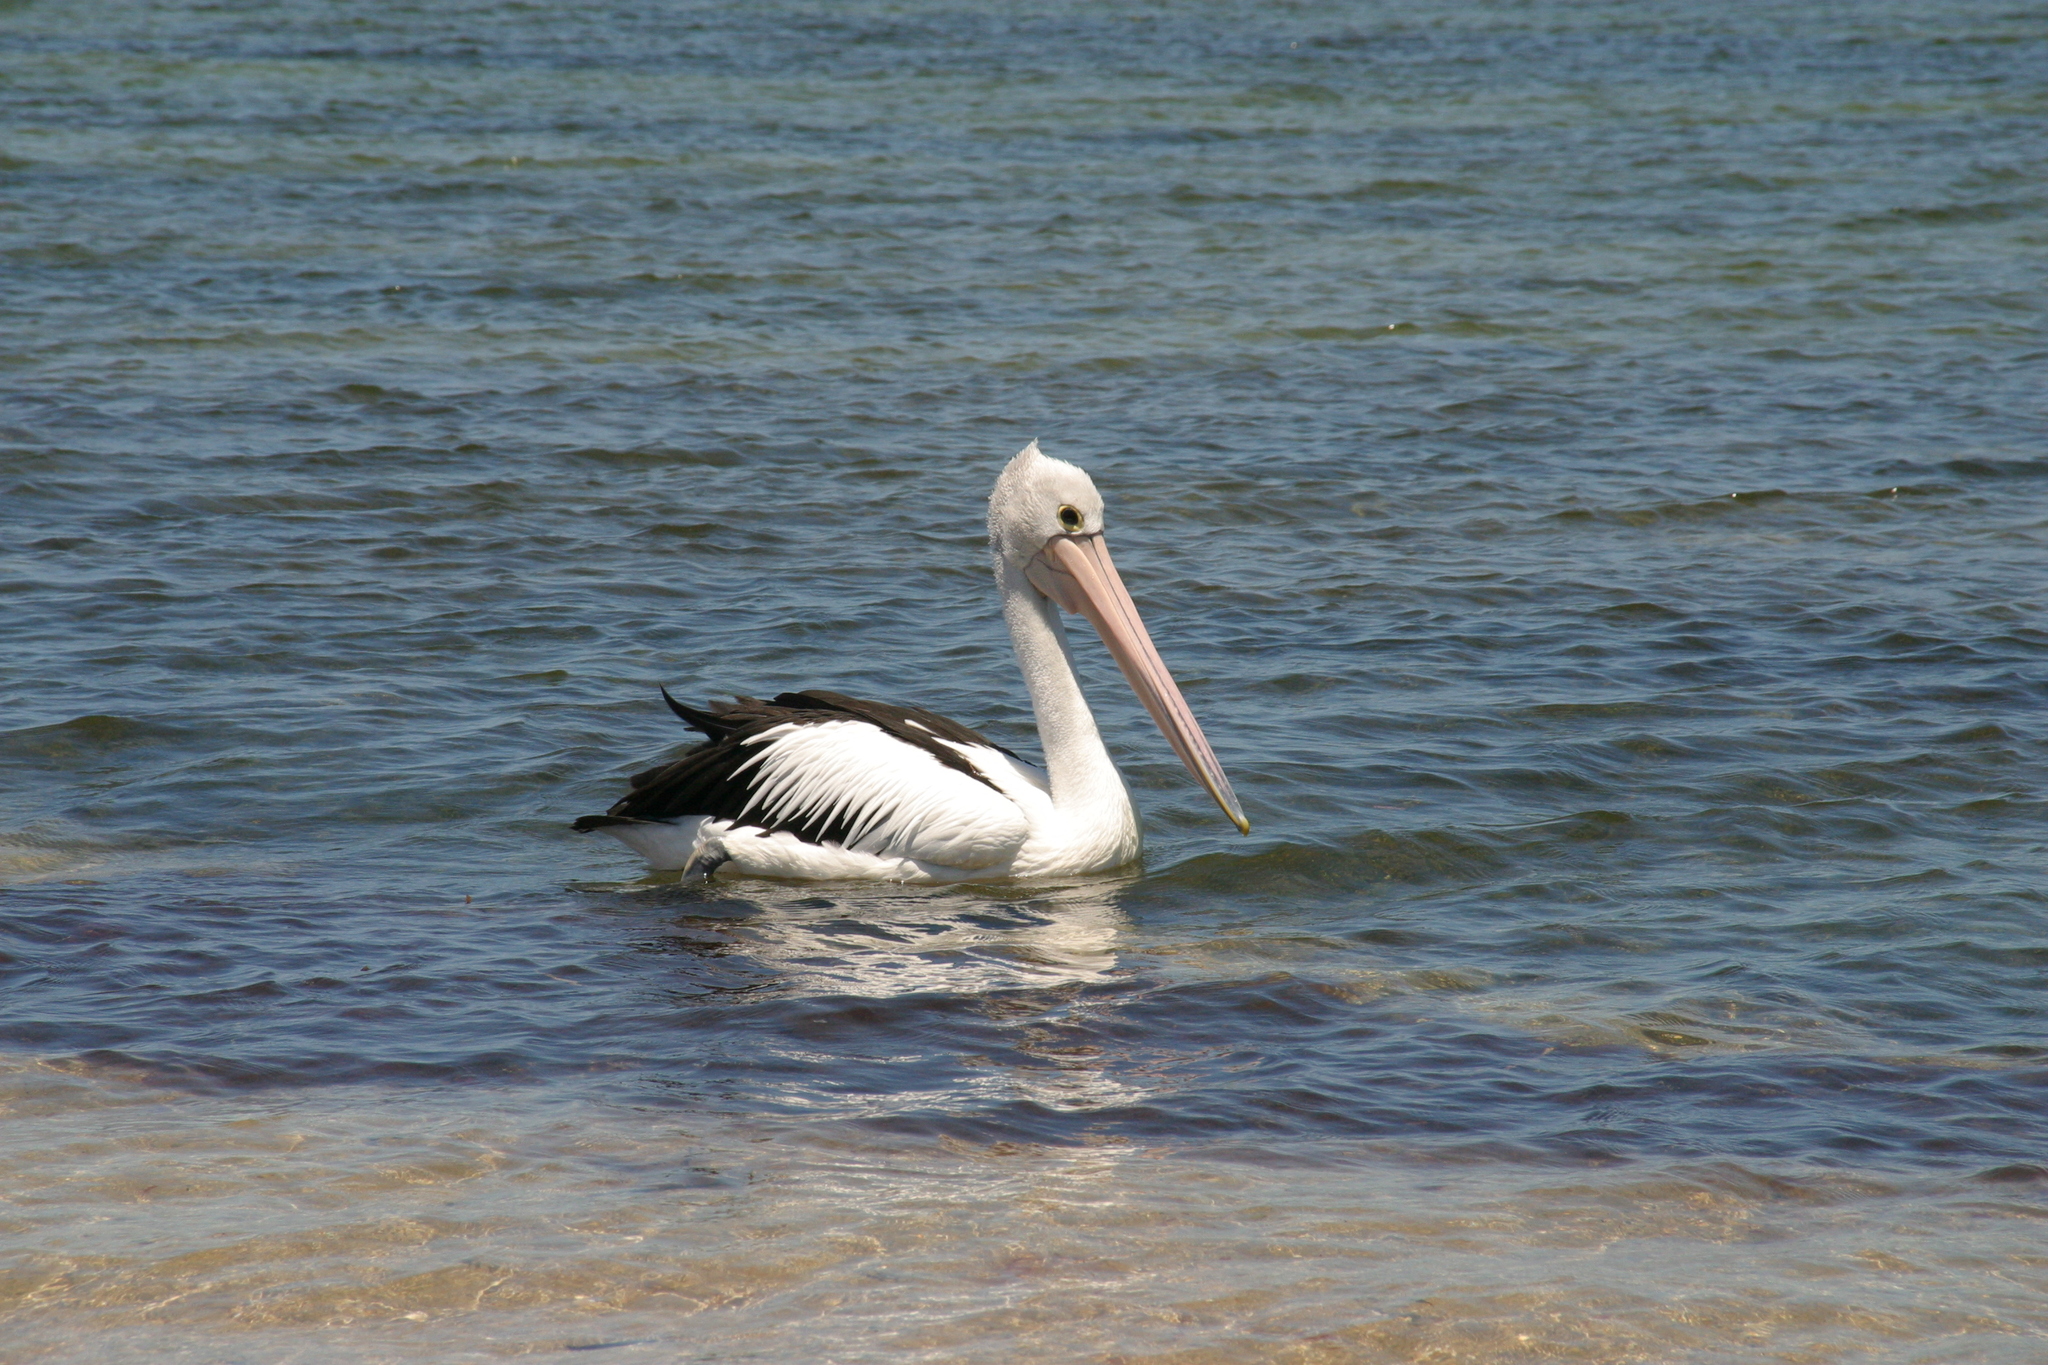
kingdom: Animalia
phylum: Chordata
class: Aves
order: Pelecaniformes
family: Pelecanidae
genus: Pelecanus
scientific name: Pelecanus conspicillatus
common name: Australian pelican
